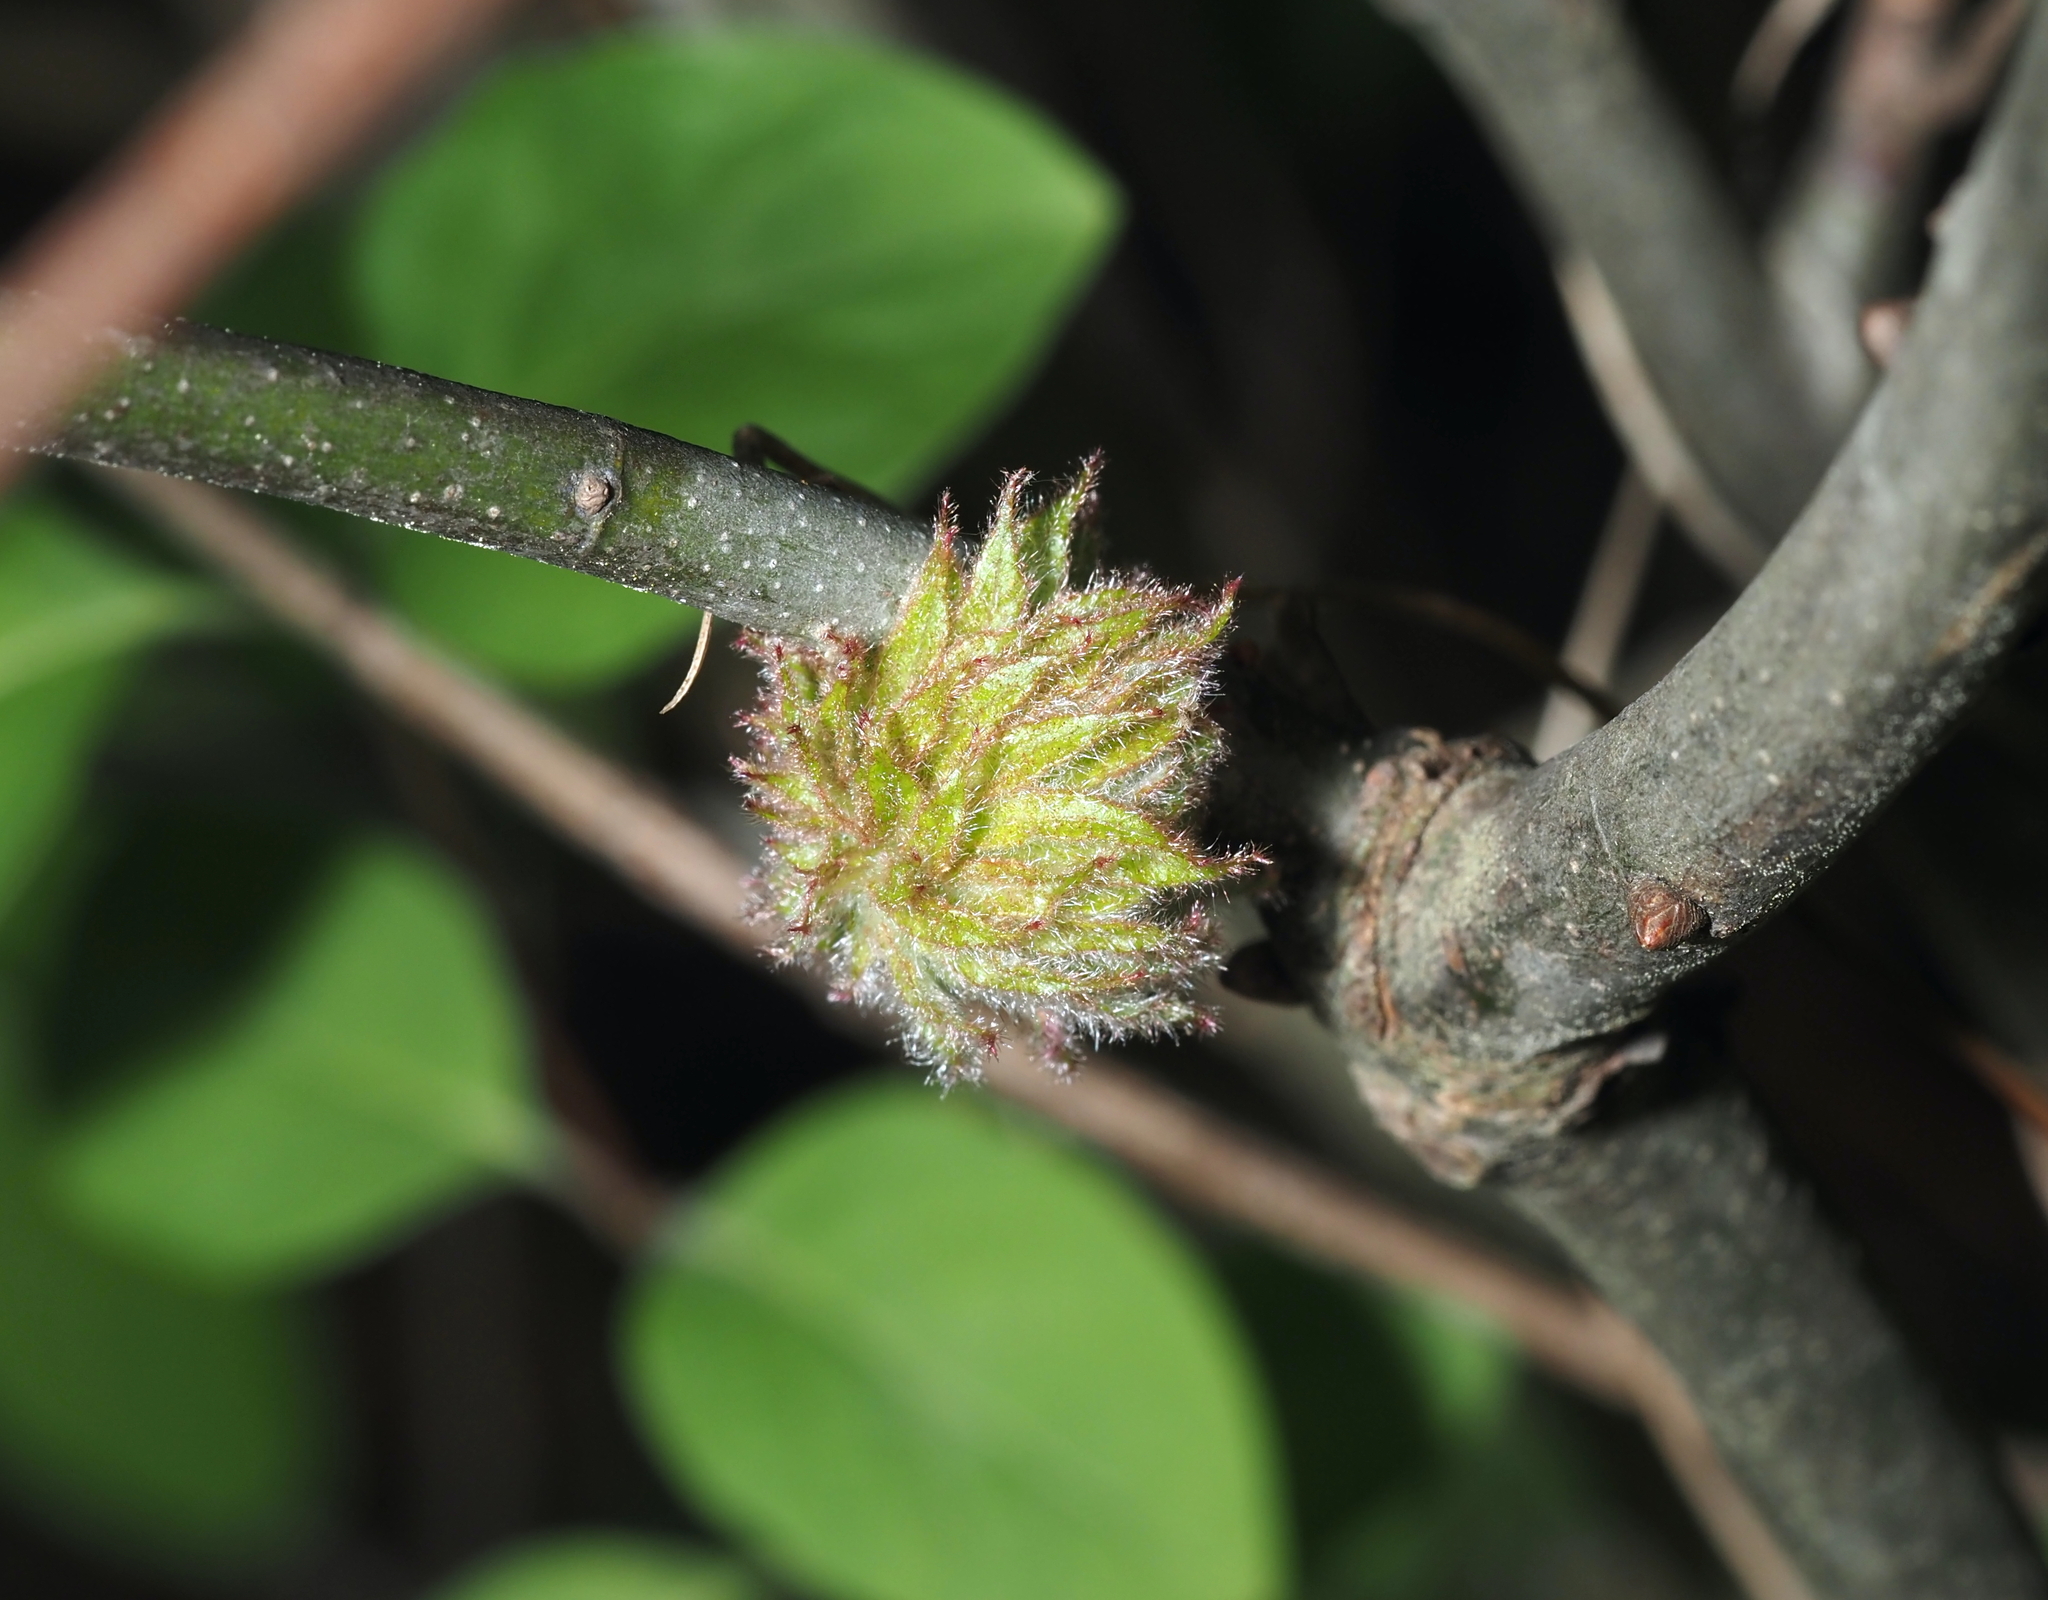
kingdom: Animalia
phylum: Arthropoda
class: Insecta
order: Hymenoptera
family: Cynipidae
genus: Dryocosmus
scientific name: Dryocosmus
